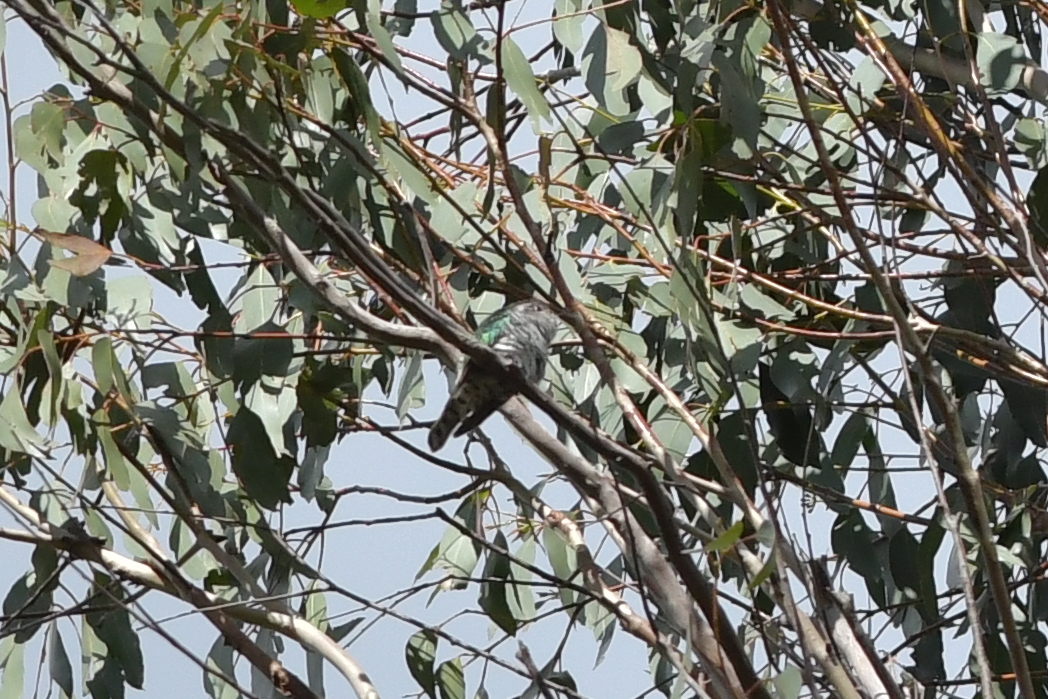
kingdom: Animalia
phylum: Chordata
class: Aves
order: Cuculiformes
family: Cuculidae
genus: Chrysococcyx
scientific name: Chrysococcyx lucidus
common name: Shining bronze cuckoo
